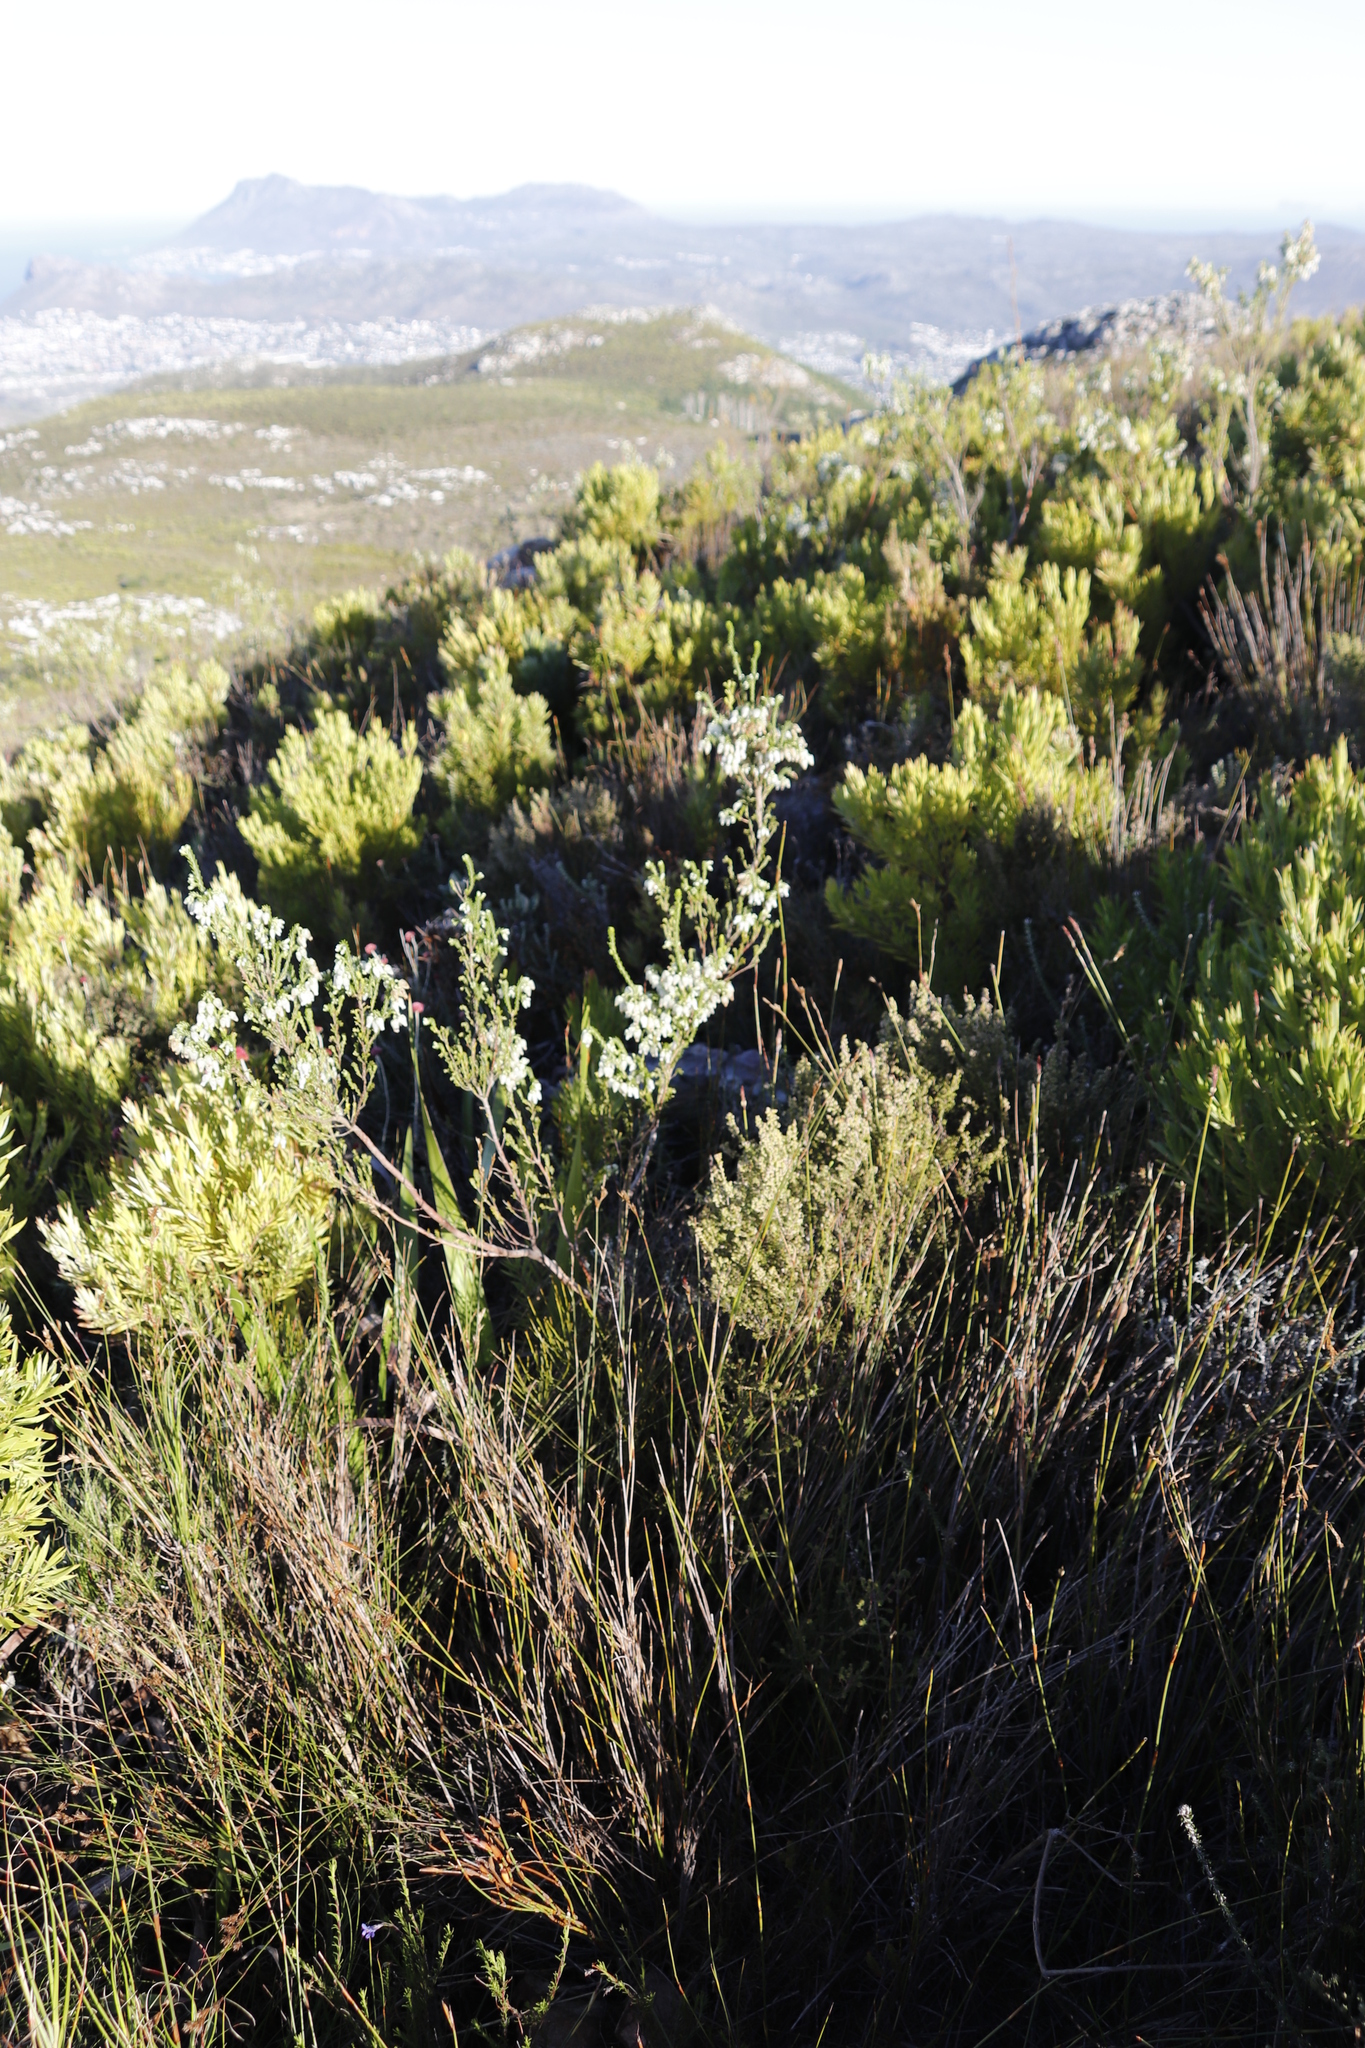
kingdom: Plantae
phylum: Tracheophyta
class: Magnoliopsida
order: Ericales
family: Ericaceae
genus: Erica
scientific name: Erica physodes
